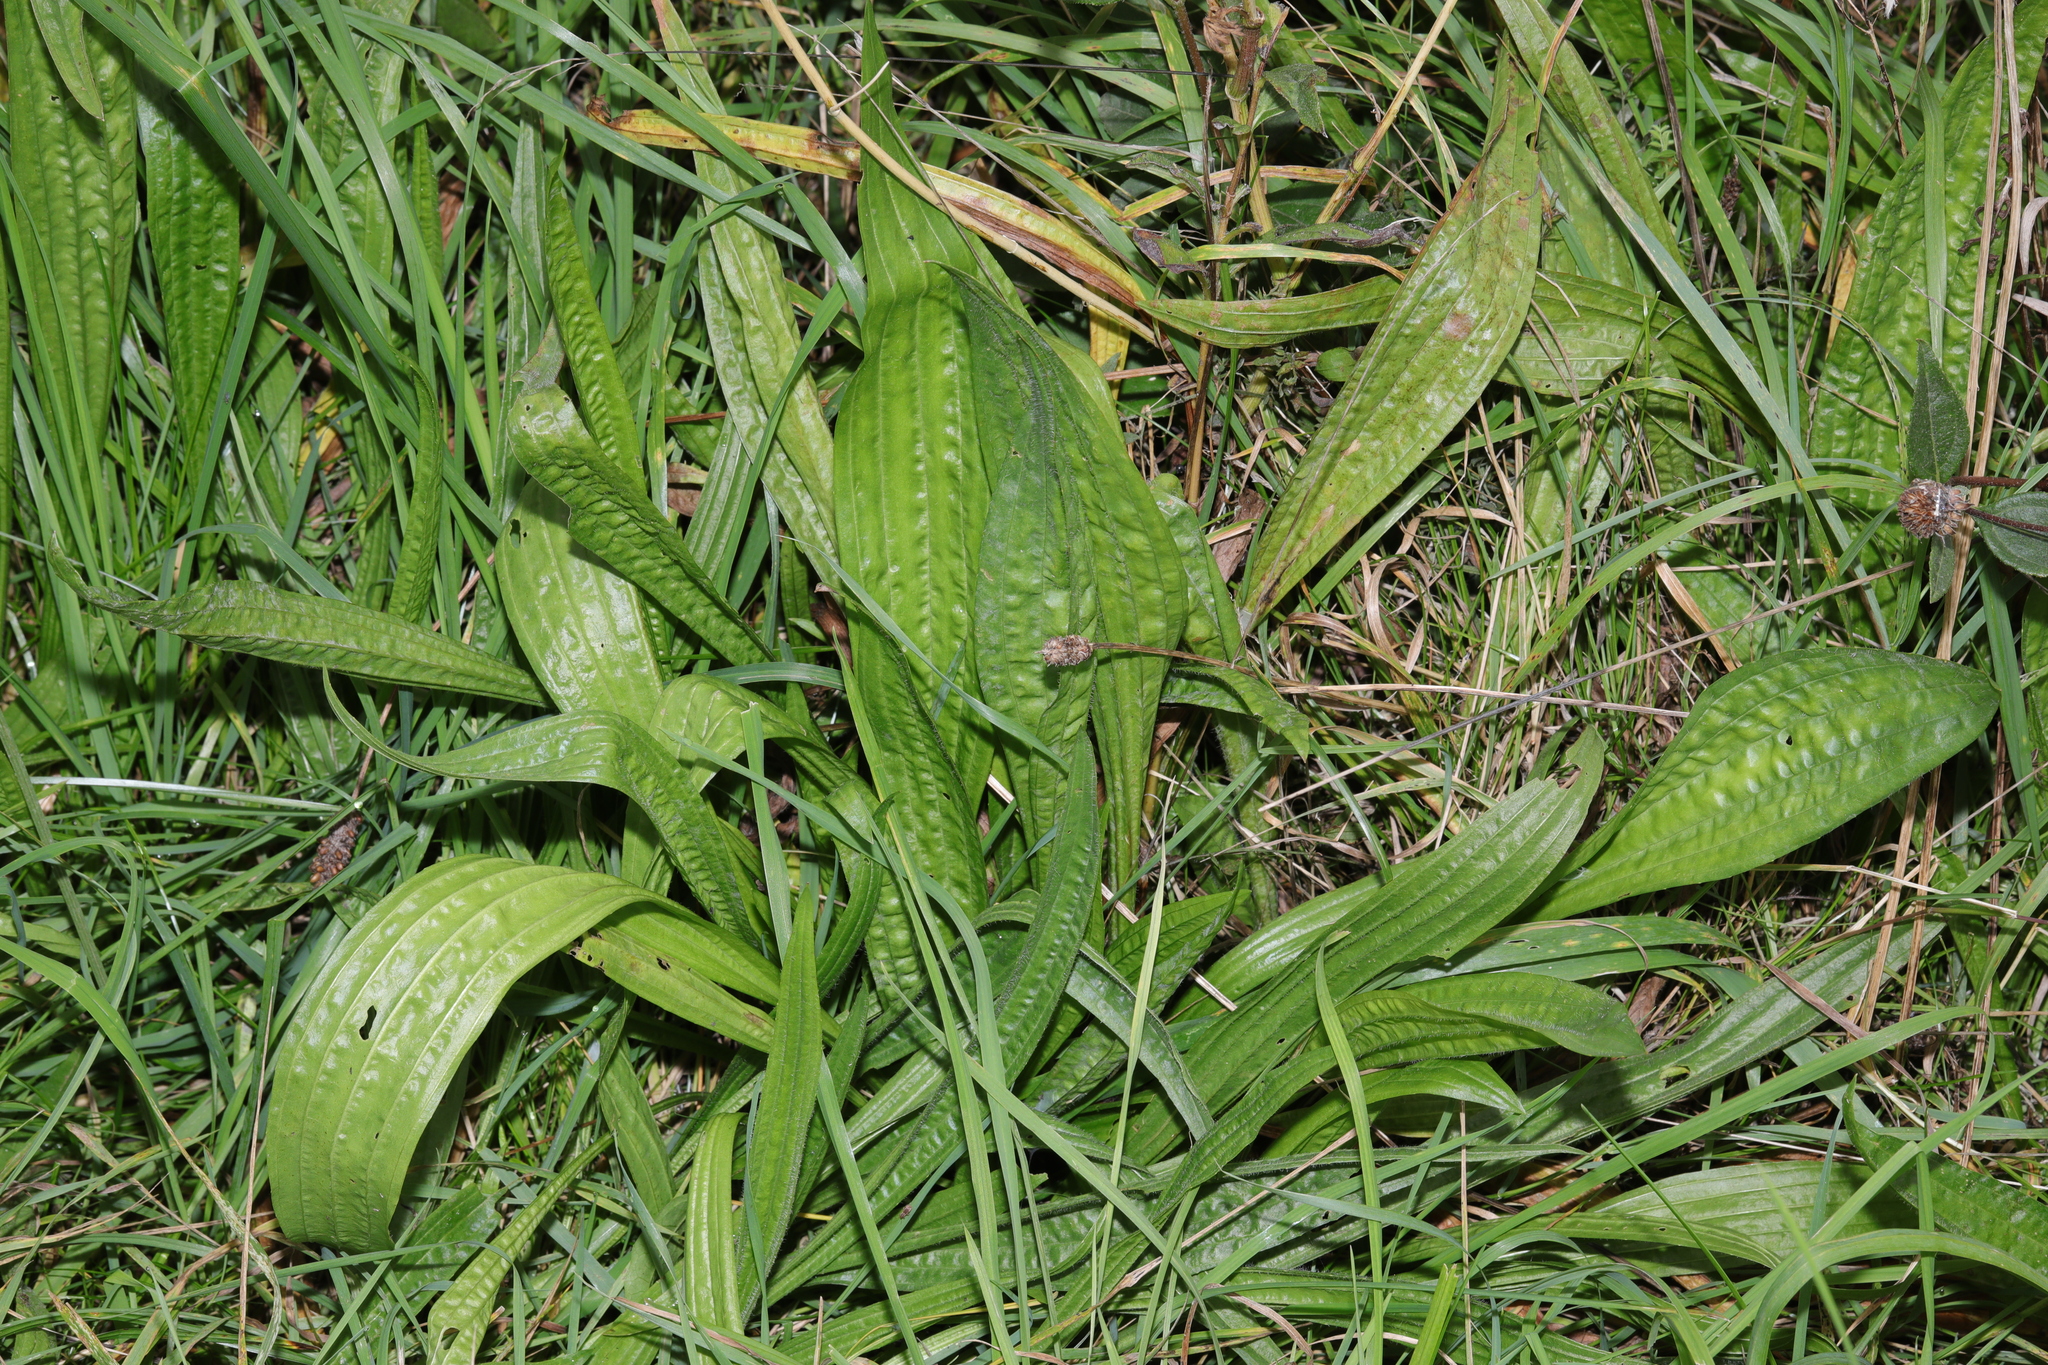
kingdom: Plantae
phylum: Tracheophyta
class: Magnoliopsida
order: Lamiales
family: Plantaginaceae
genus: Plantago
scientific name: Plantago lanceolata
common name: Ribwort plantain
